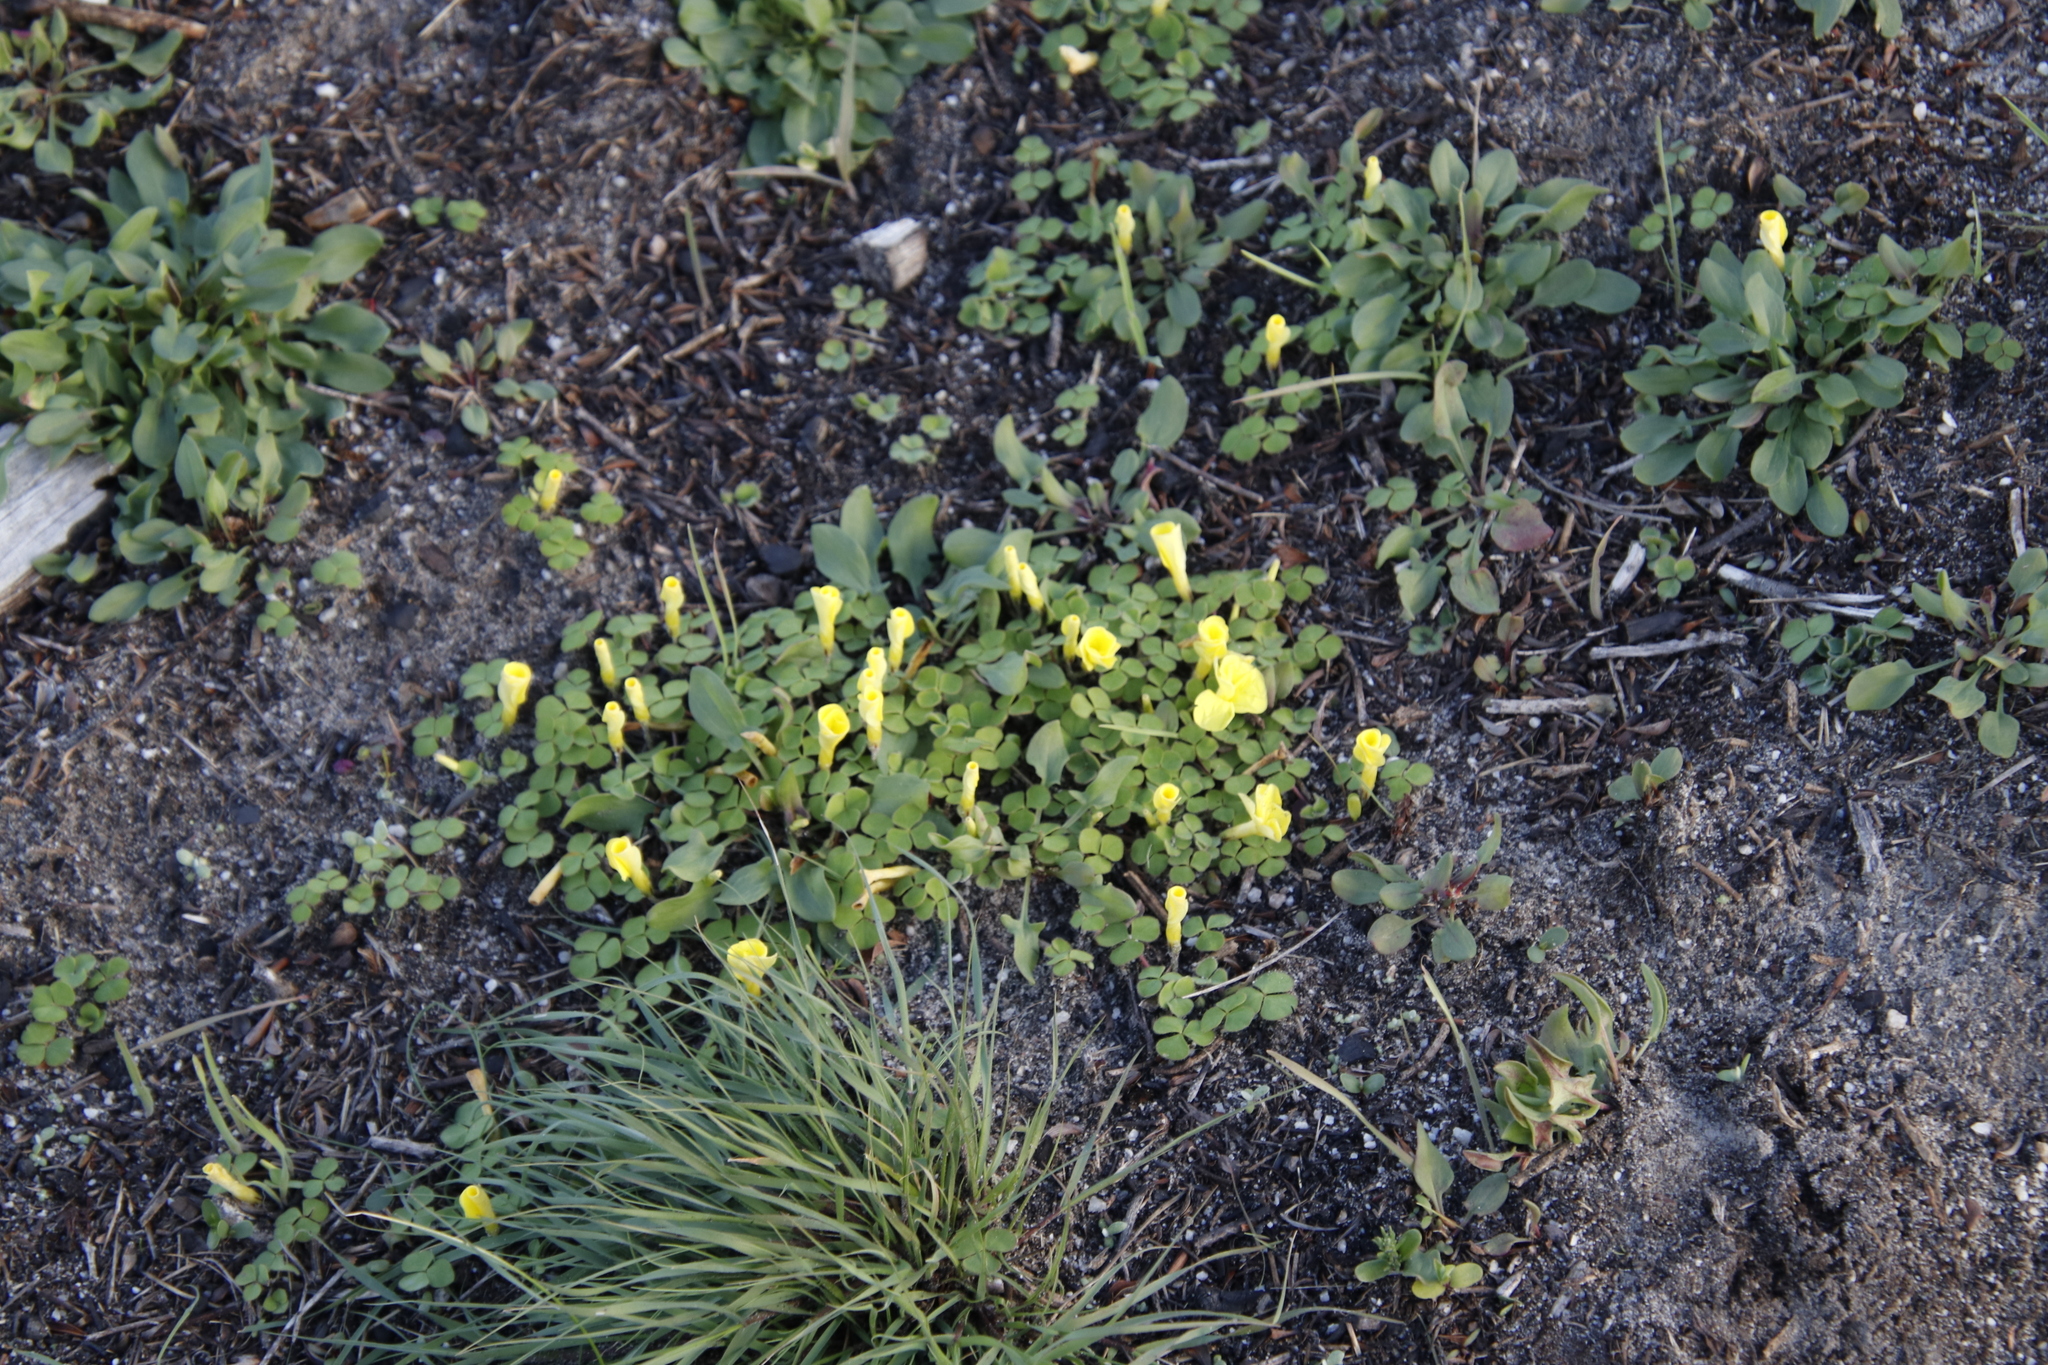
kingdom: Plantae
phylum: Tracheophyta
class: Magnoliopsida
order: Oxalidales
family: Oxalidaceae
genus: Oxalis
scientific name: Oxalis luteola
